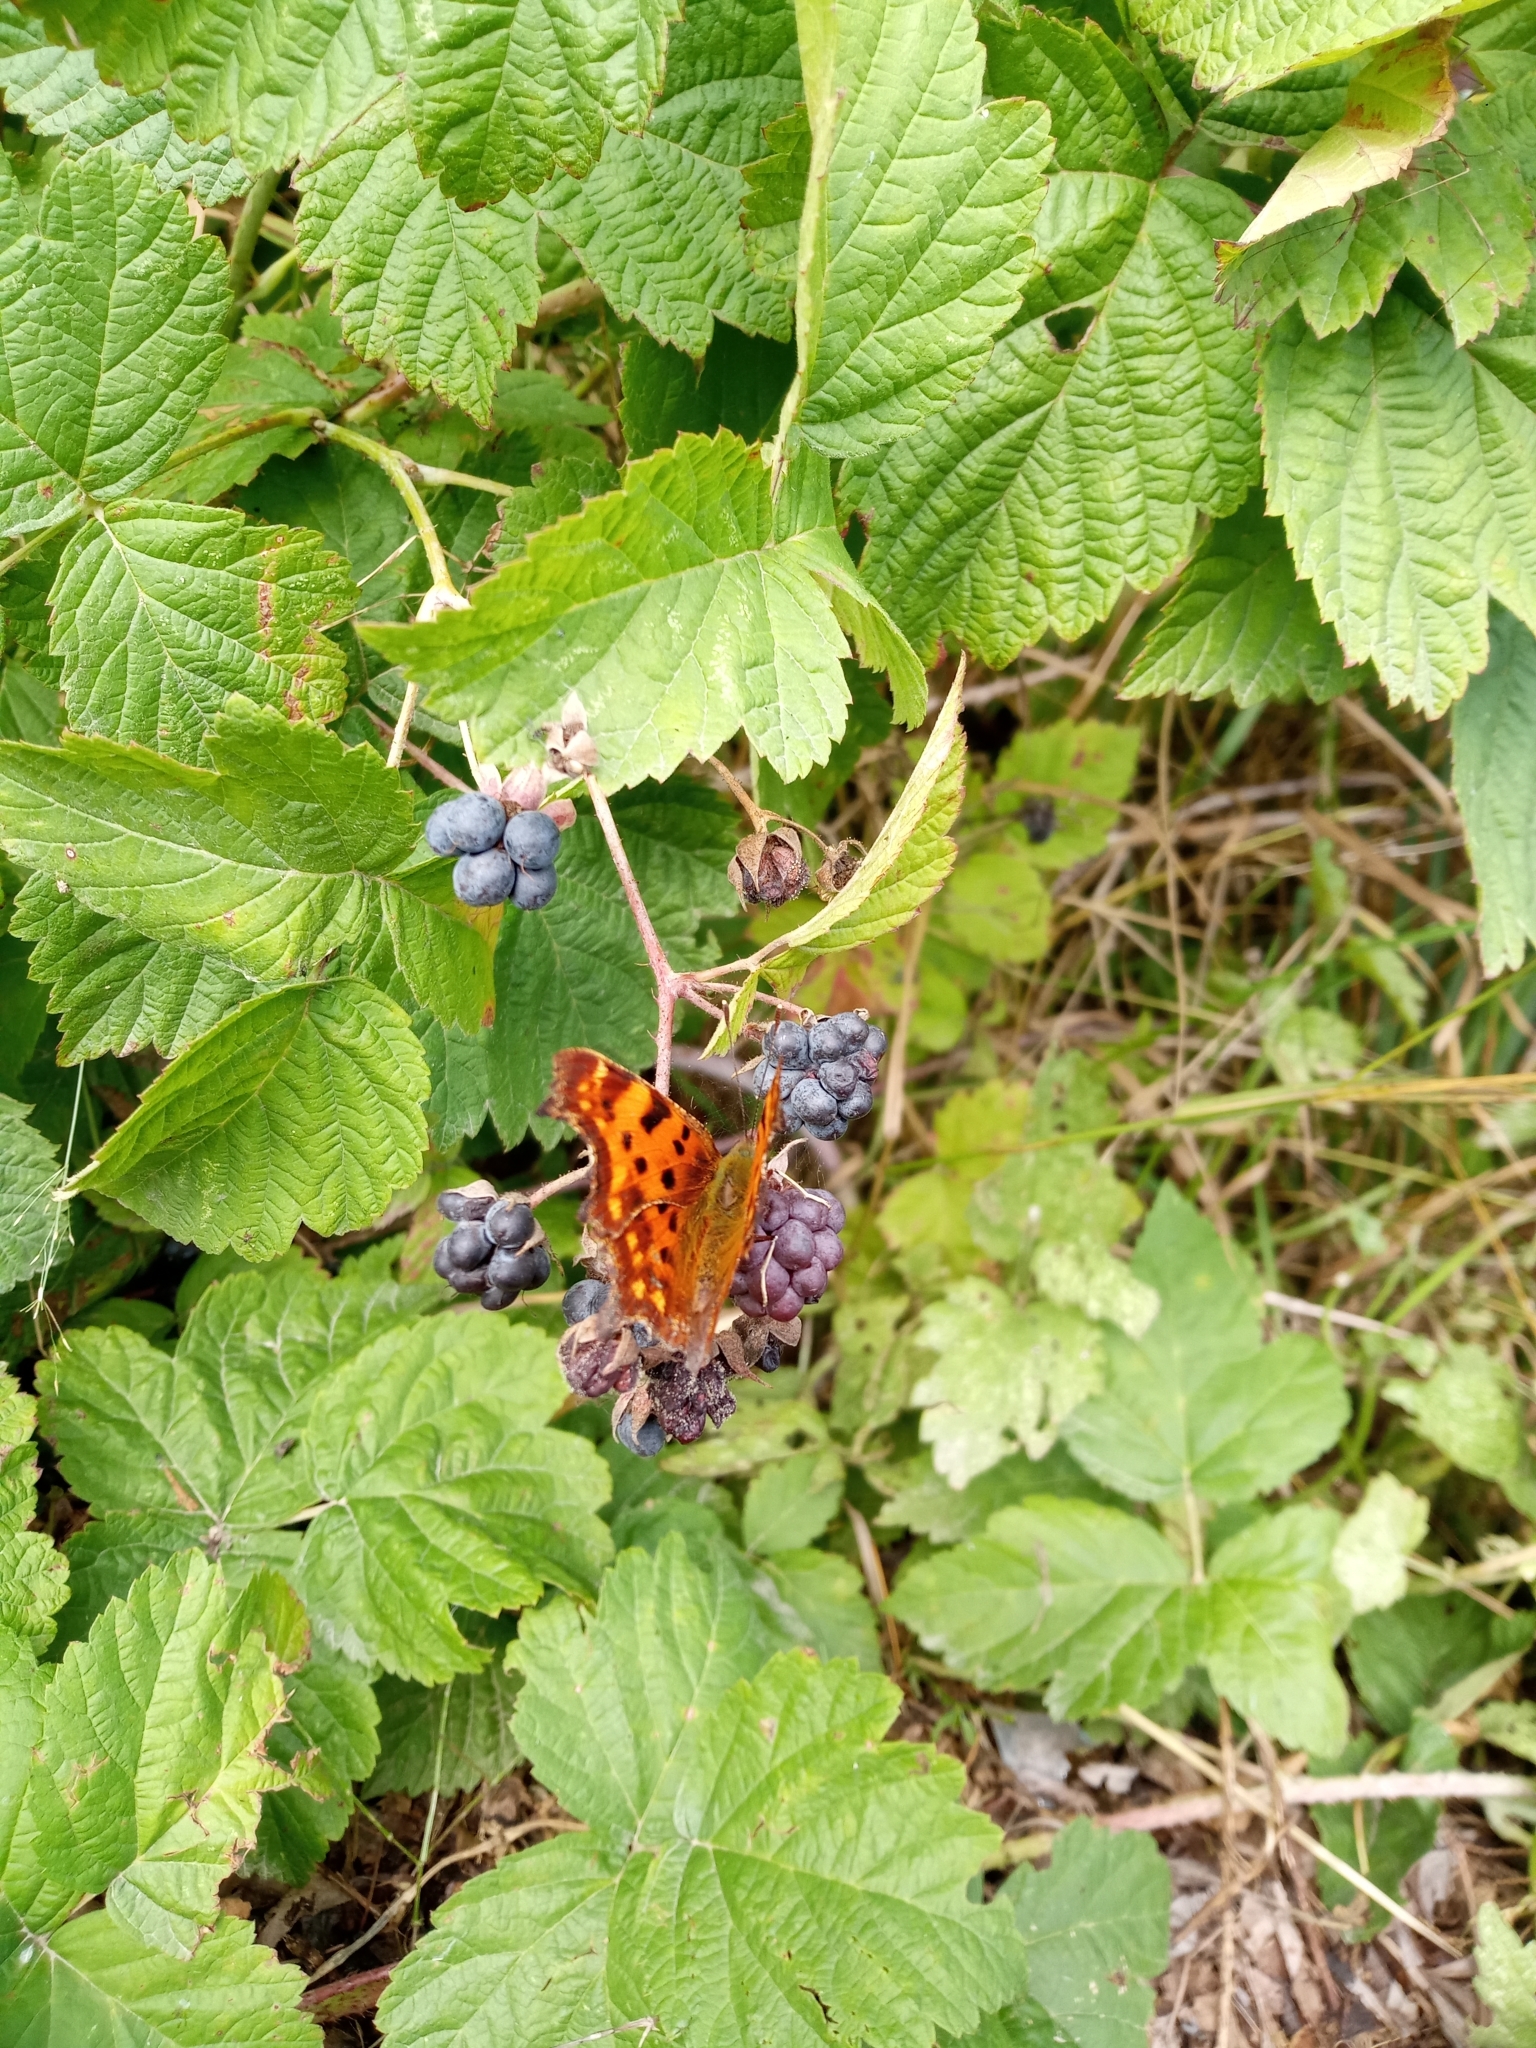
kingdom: Animalia
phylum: Arthropoda
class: Insecta
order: Lepidoptera
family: Nymphalidae
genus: Polygonia
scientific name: Polygonia c-album
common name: Comma
